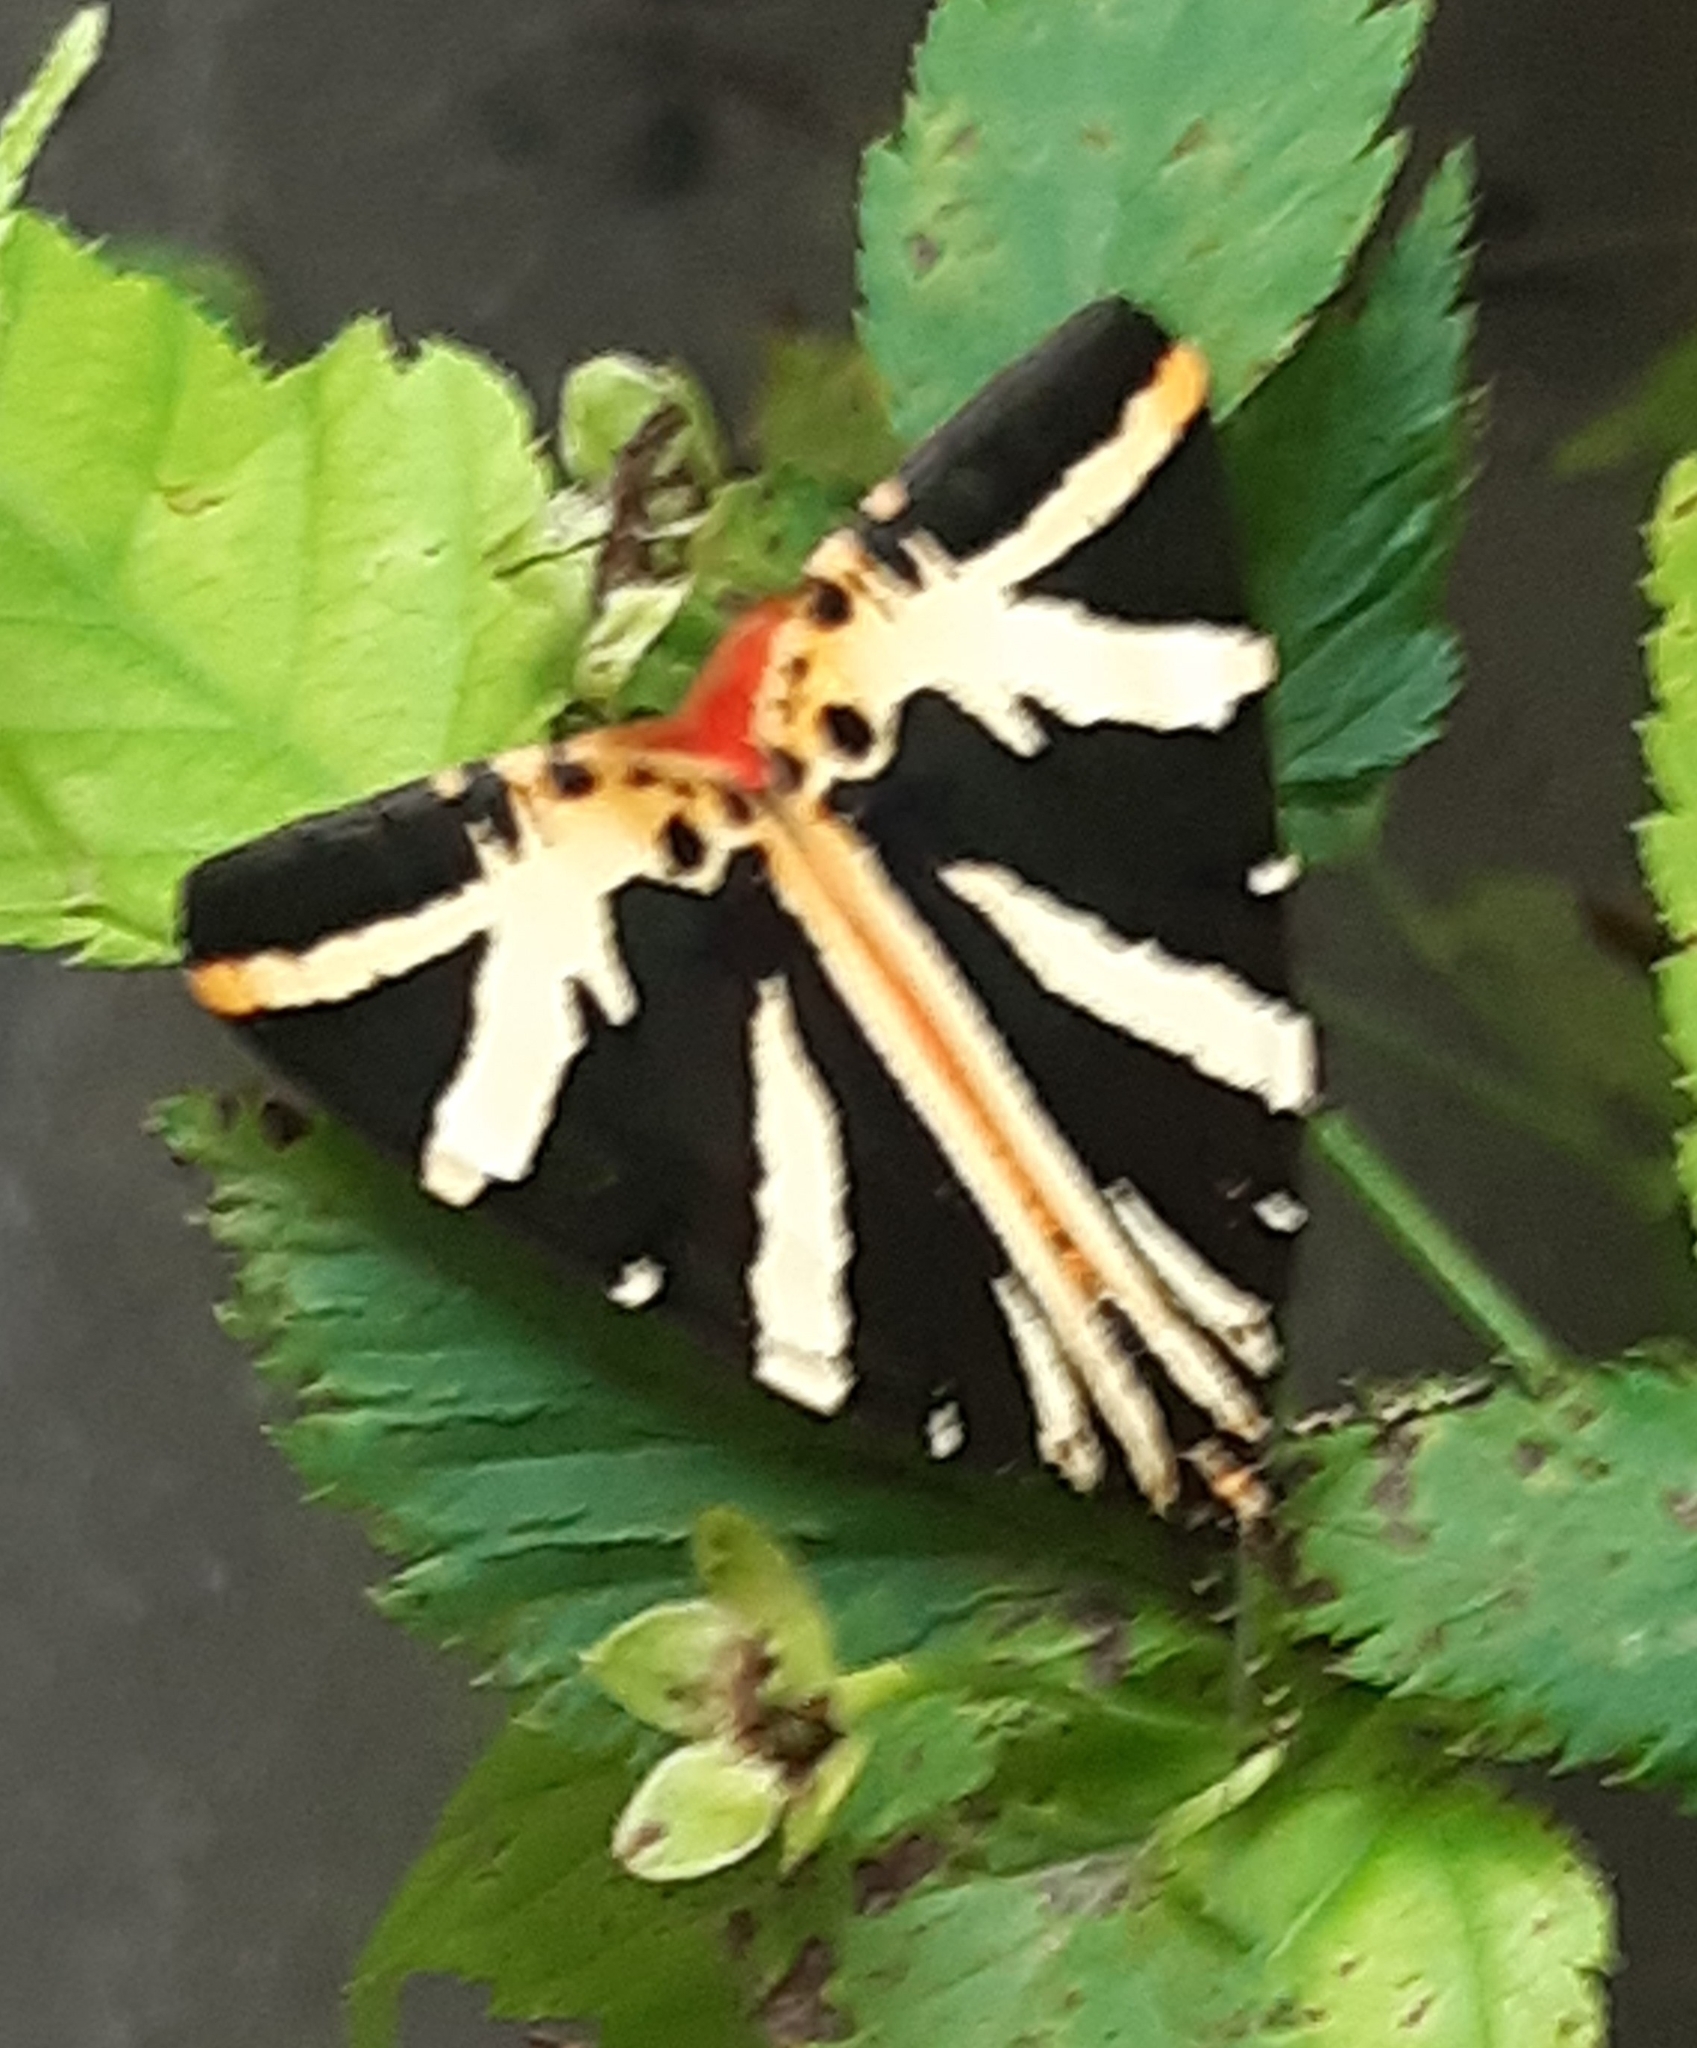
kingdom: Animalia
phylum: Arthropoda
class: Insecta
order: Lepidoptera
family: Erebidae
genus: Euplagia
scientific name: Euplagia quadripunctaria
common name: Jersey tiger
